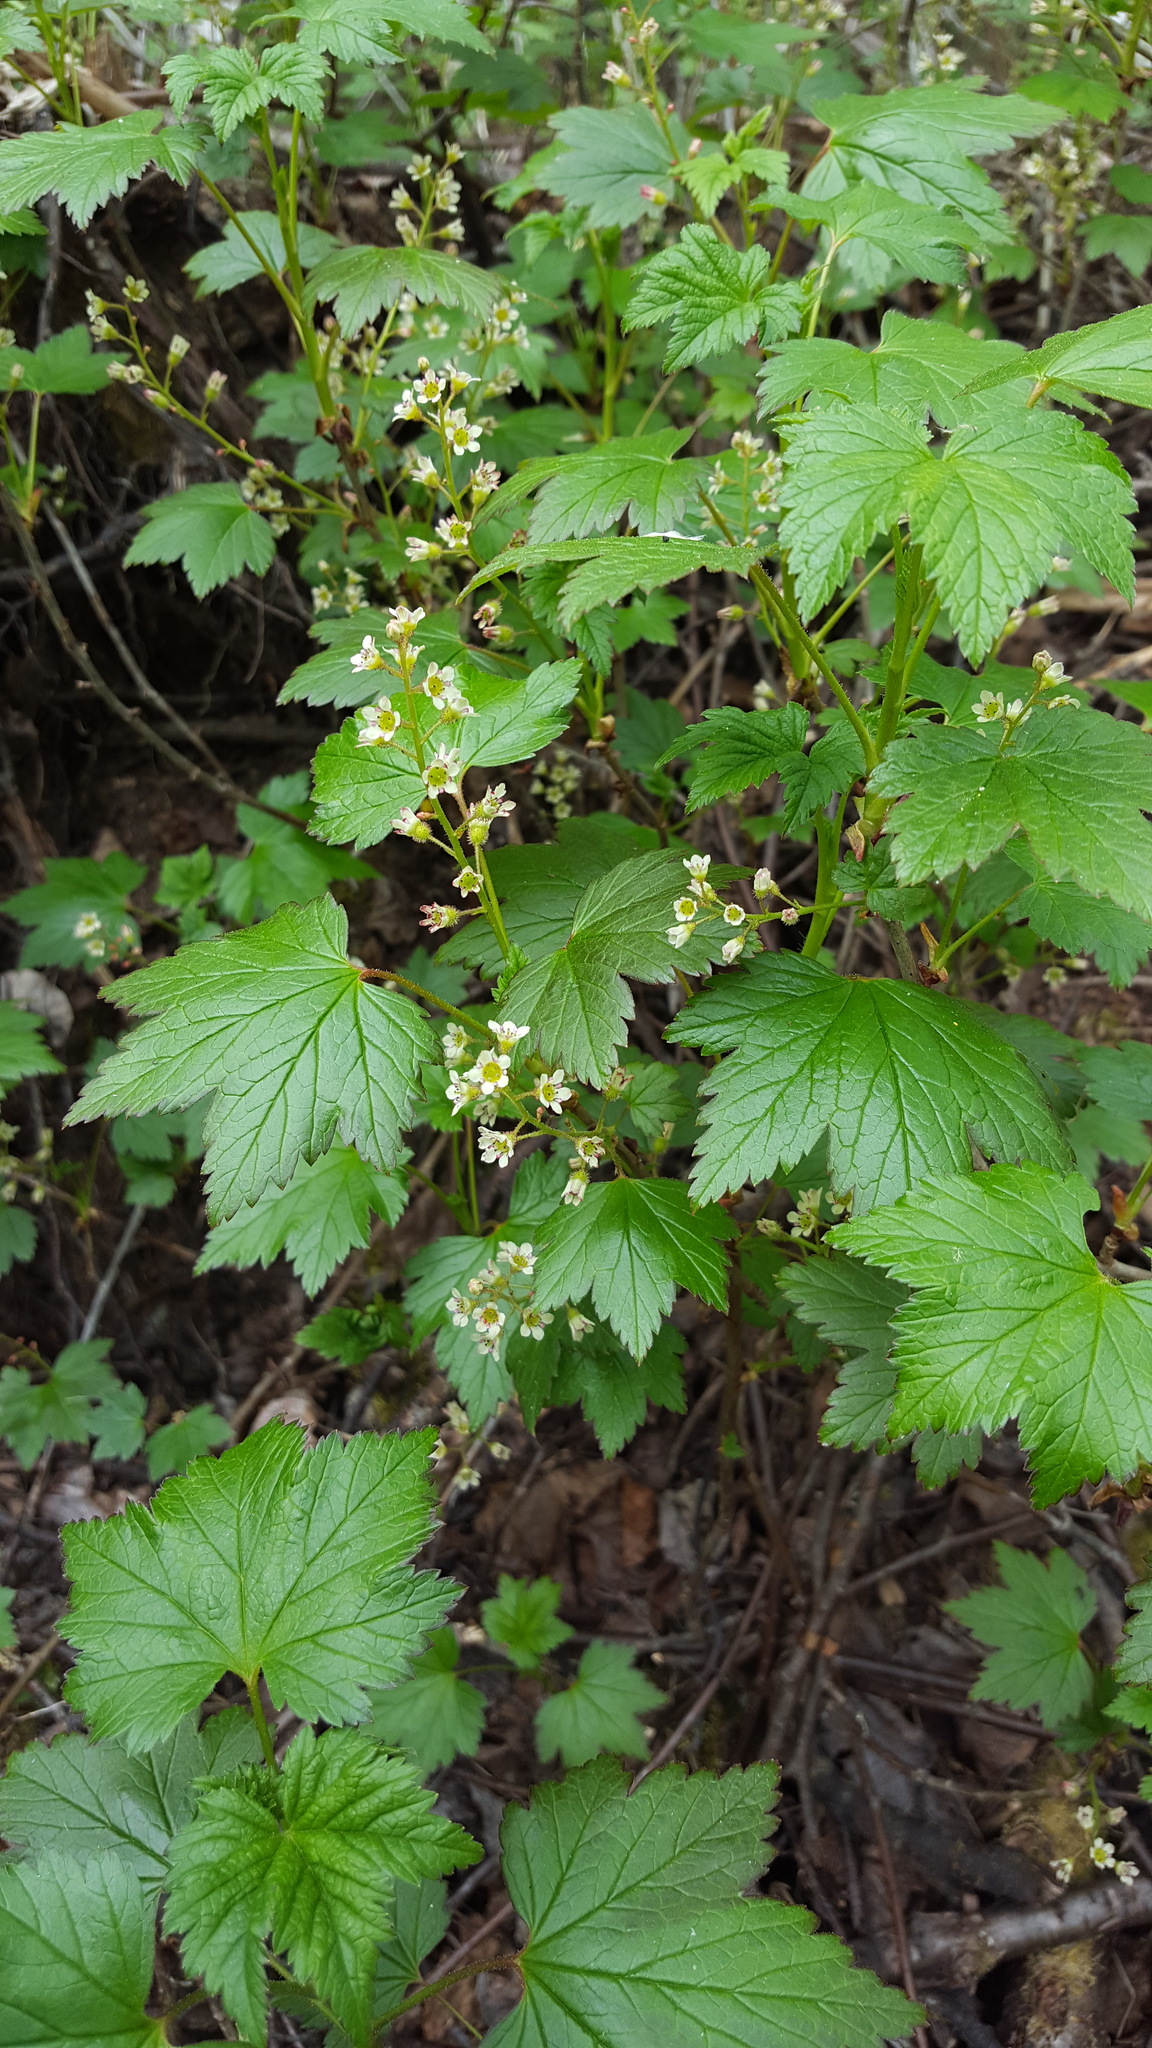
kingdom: Plantae
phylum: Tracheophyta
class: Magnoliopsida
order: Saxifragales
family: Grossulariaceae
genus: Ribes
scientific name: Ribes glandulosum
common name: Skunk currant
